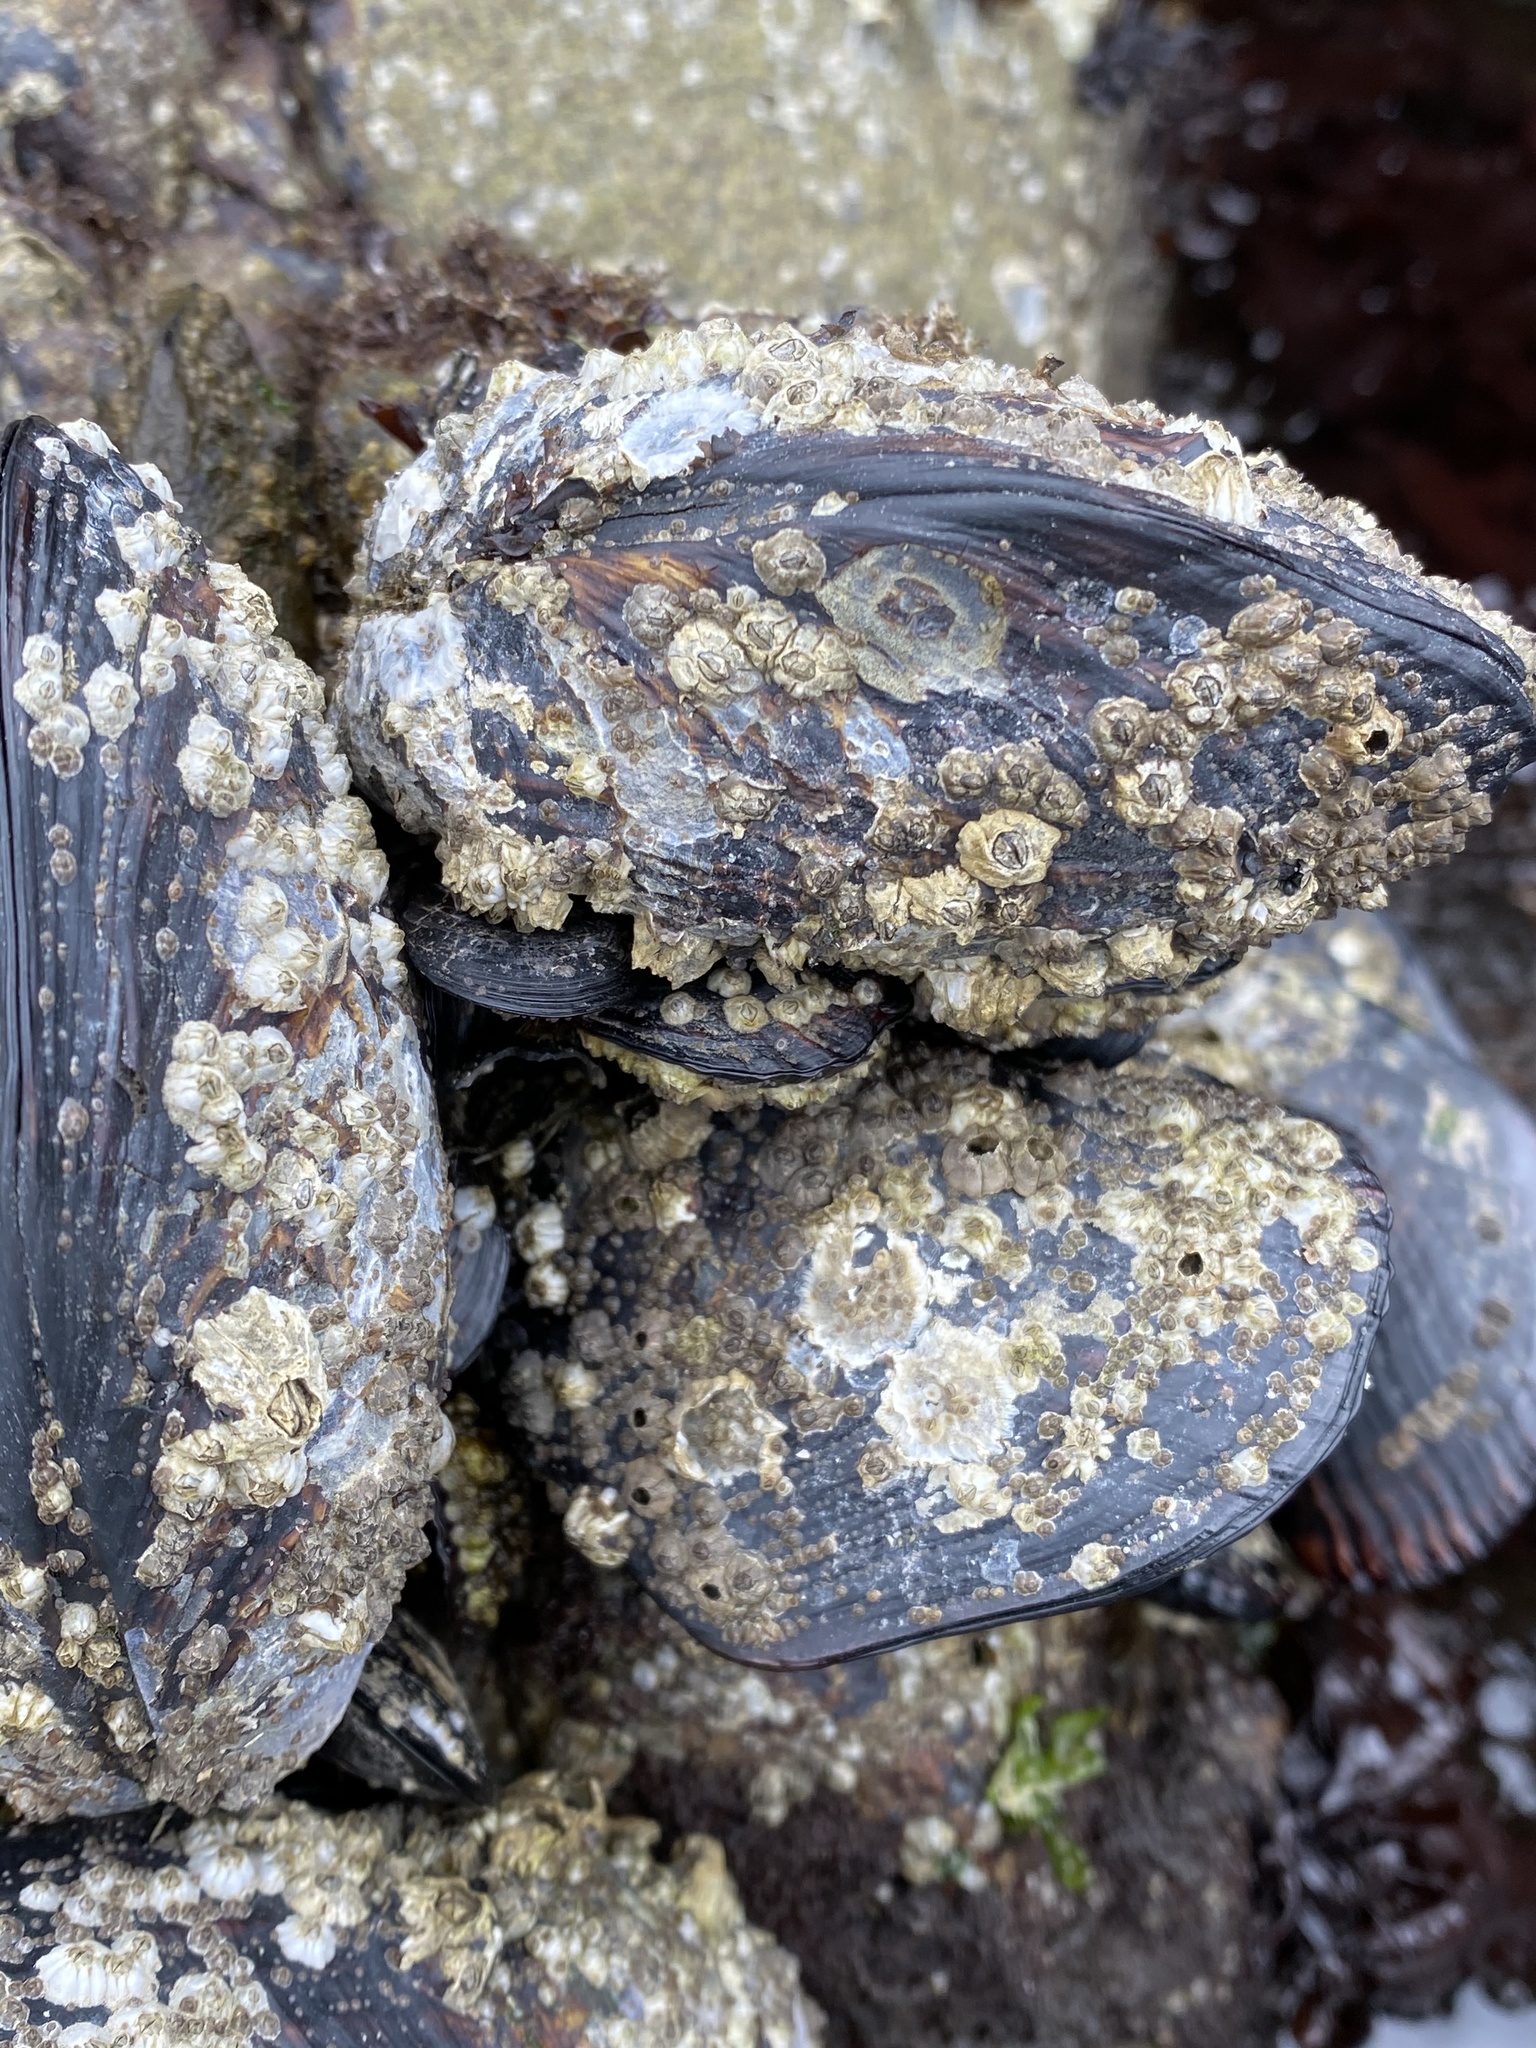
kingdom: Animalia
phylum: Mollusca
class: Bivalvia
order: Mytilida
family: Mytilidae
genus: Mytilus
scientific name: Mytilus californianus
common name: California mussel
